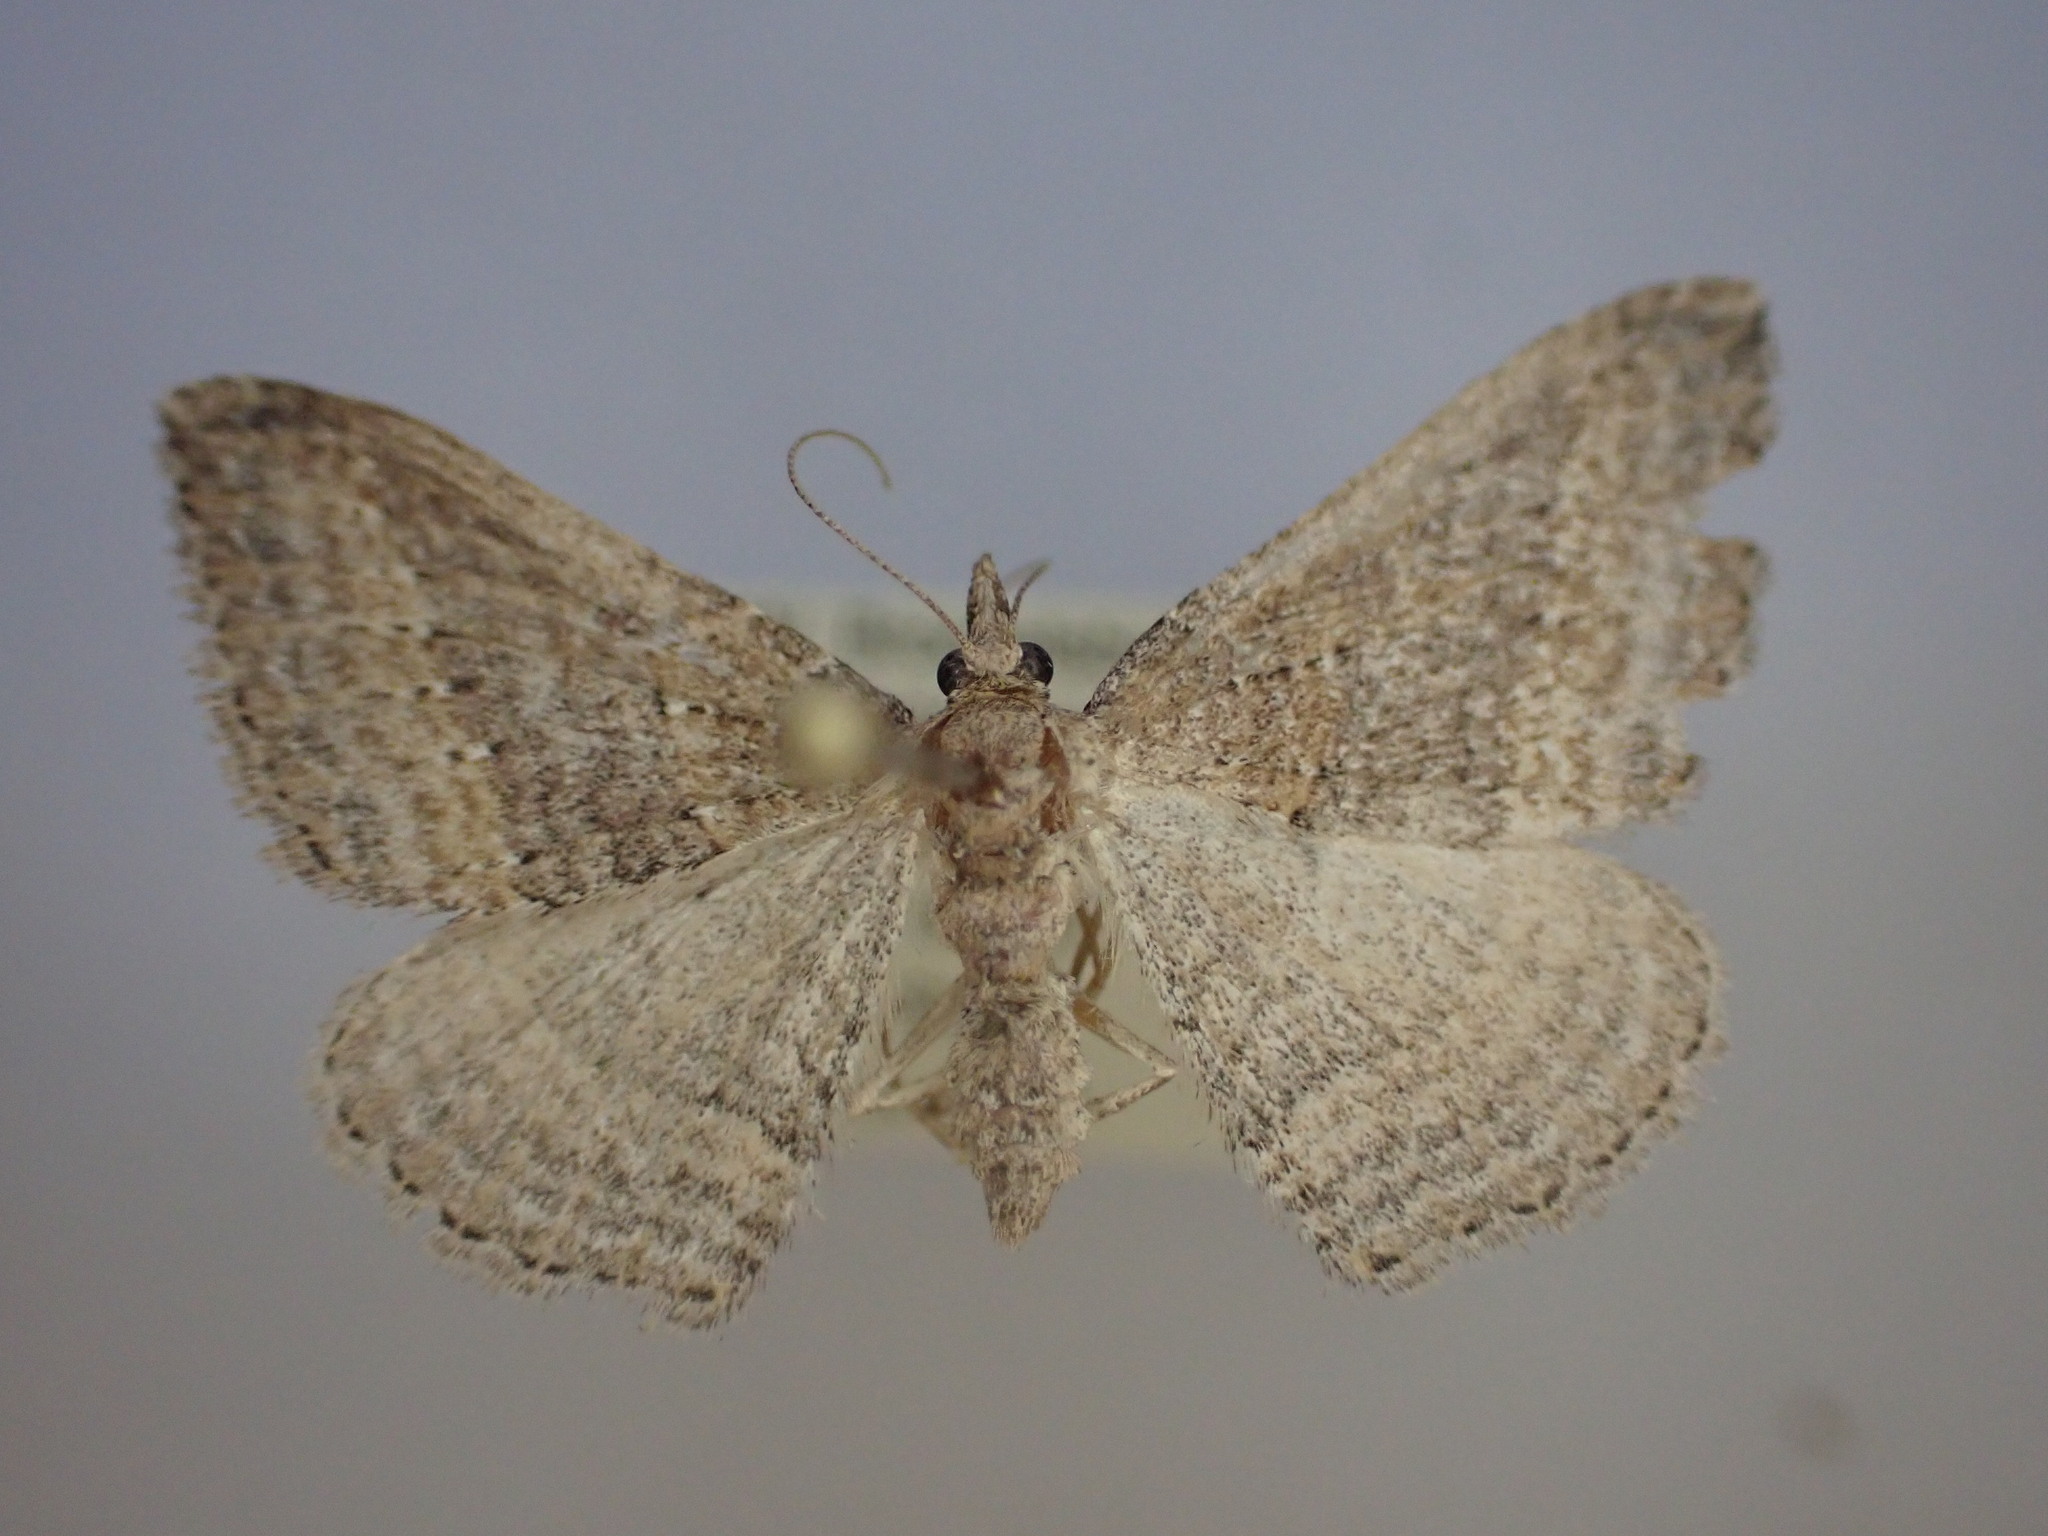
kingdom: Animalia
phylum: Arthropoda
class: Insecta
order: Lepidoptera
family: Geometridae
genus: Epyaxa
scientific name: Epyaxa venipunctata
